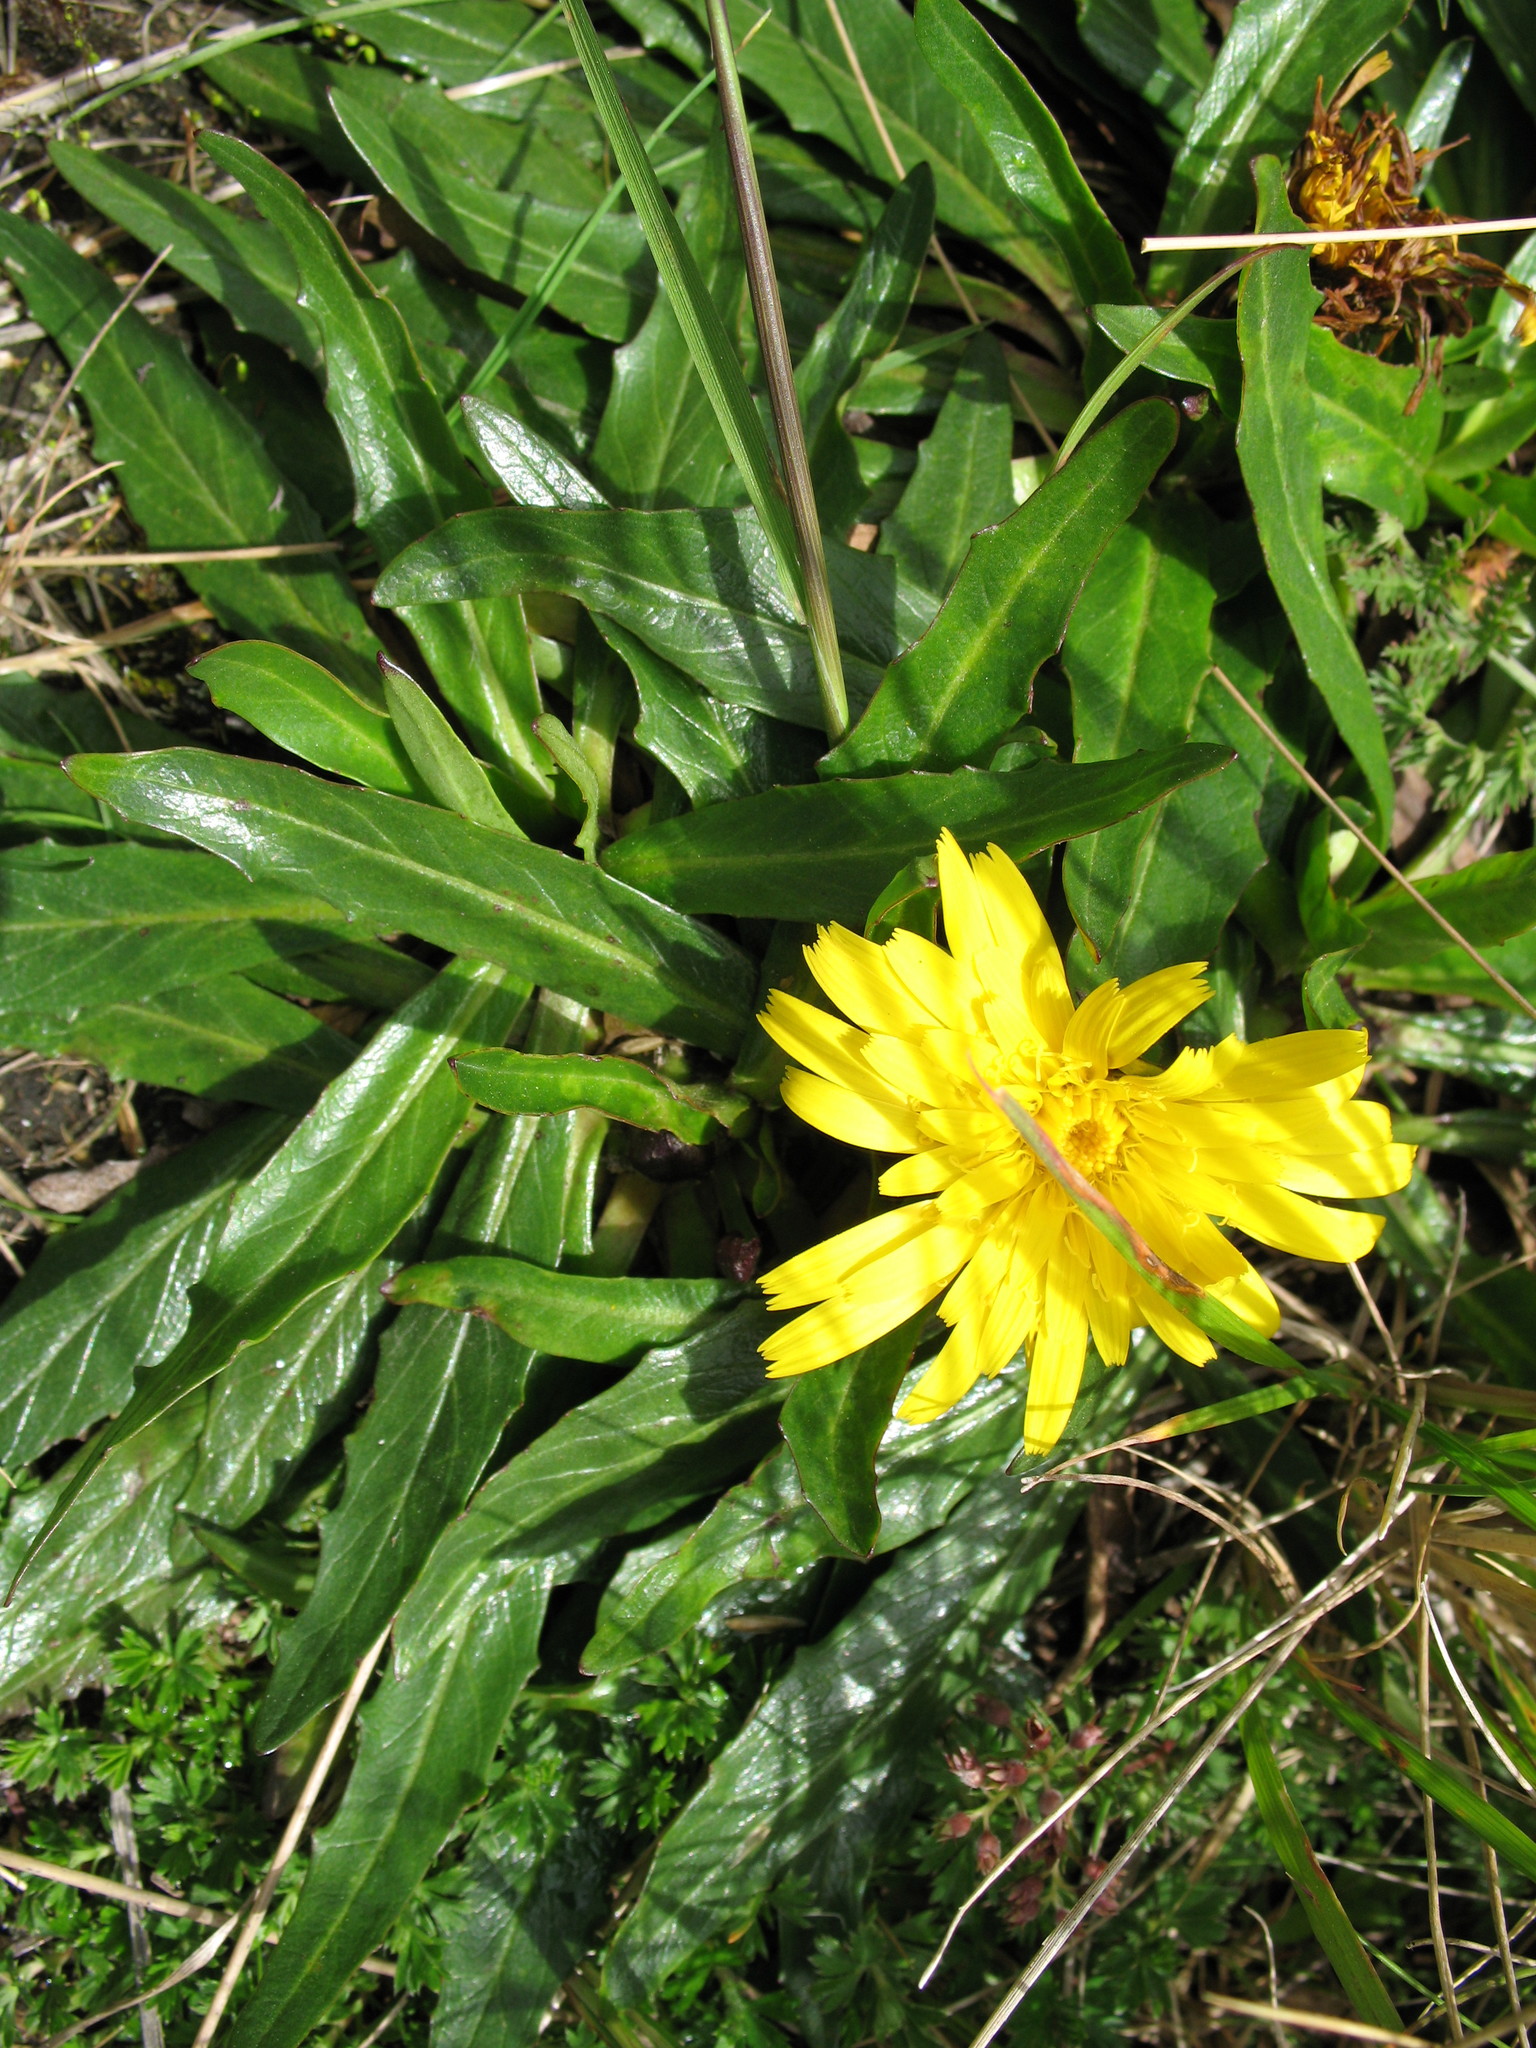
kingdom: Plantae
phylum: Tracheophyta
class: Magnoliopsida
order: Asterales
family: Asteraceae
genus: Hypochaeris
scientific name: Hypochaeris sessiliflora
